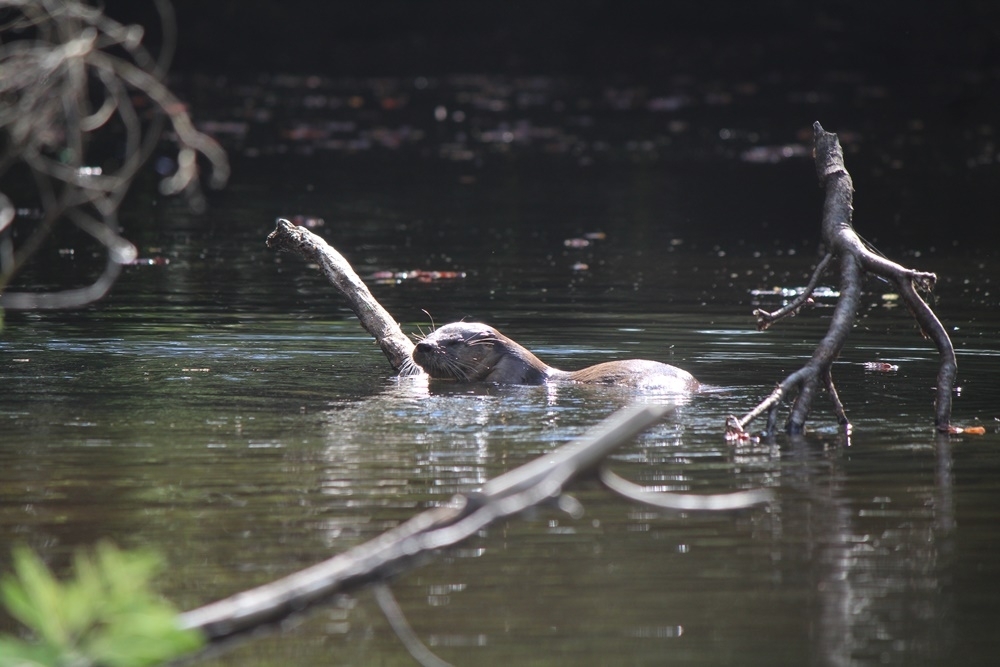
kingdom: Animalia
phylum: Chordata
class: Mammalia
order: Carnivora
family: Mustelidae
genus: Lontra
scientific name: Lontra provocax
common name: Southern river otter
